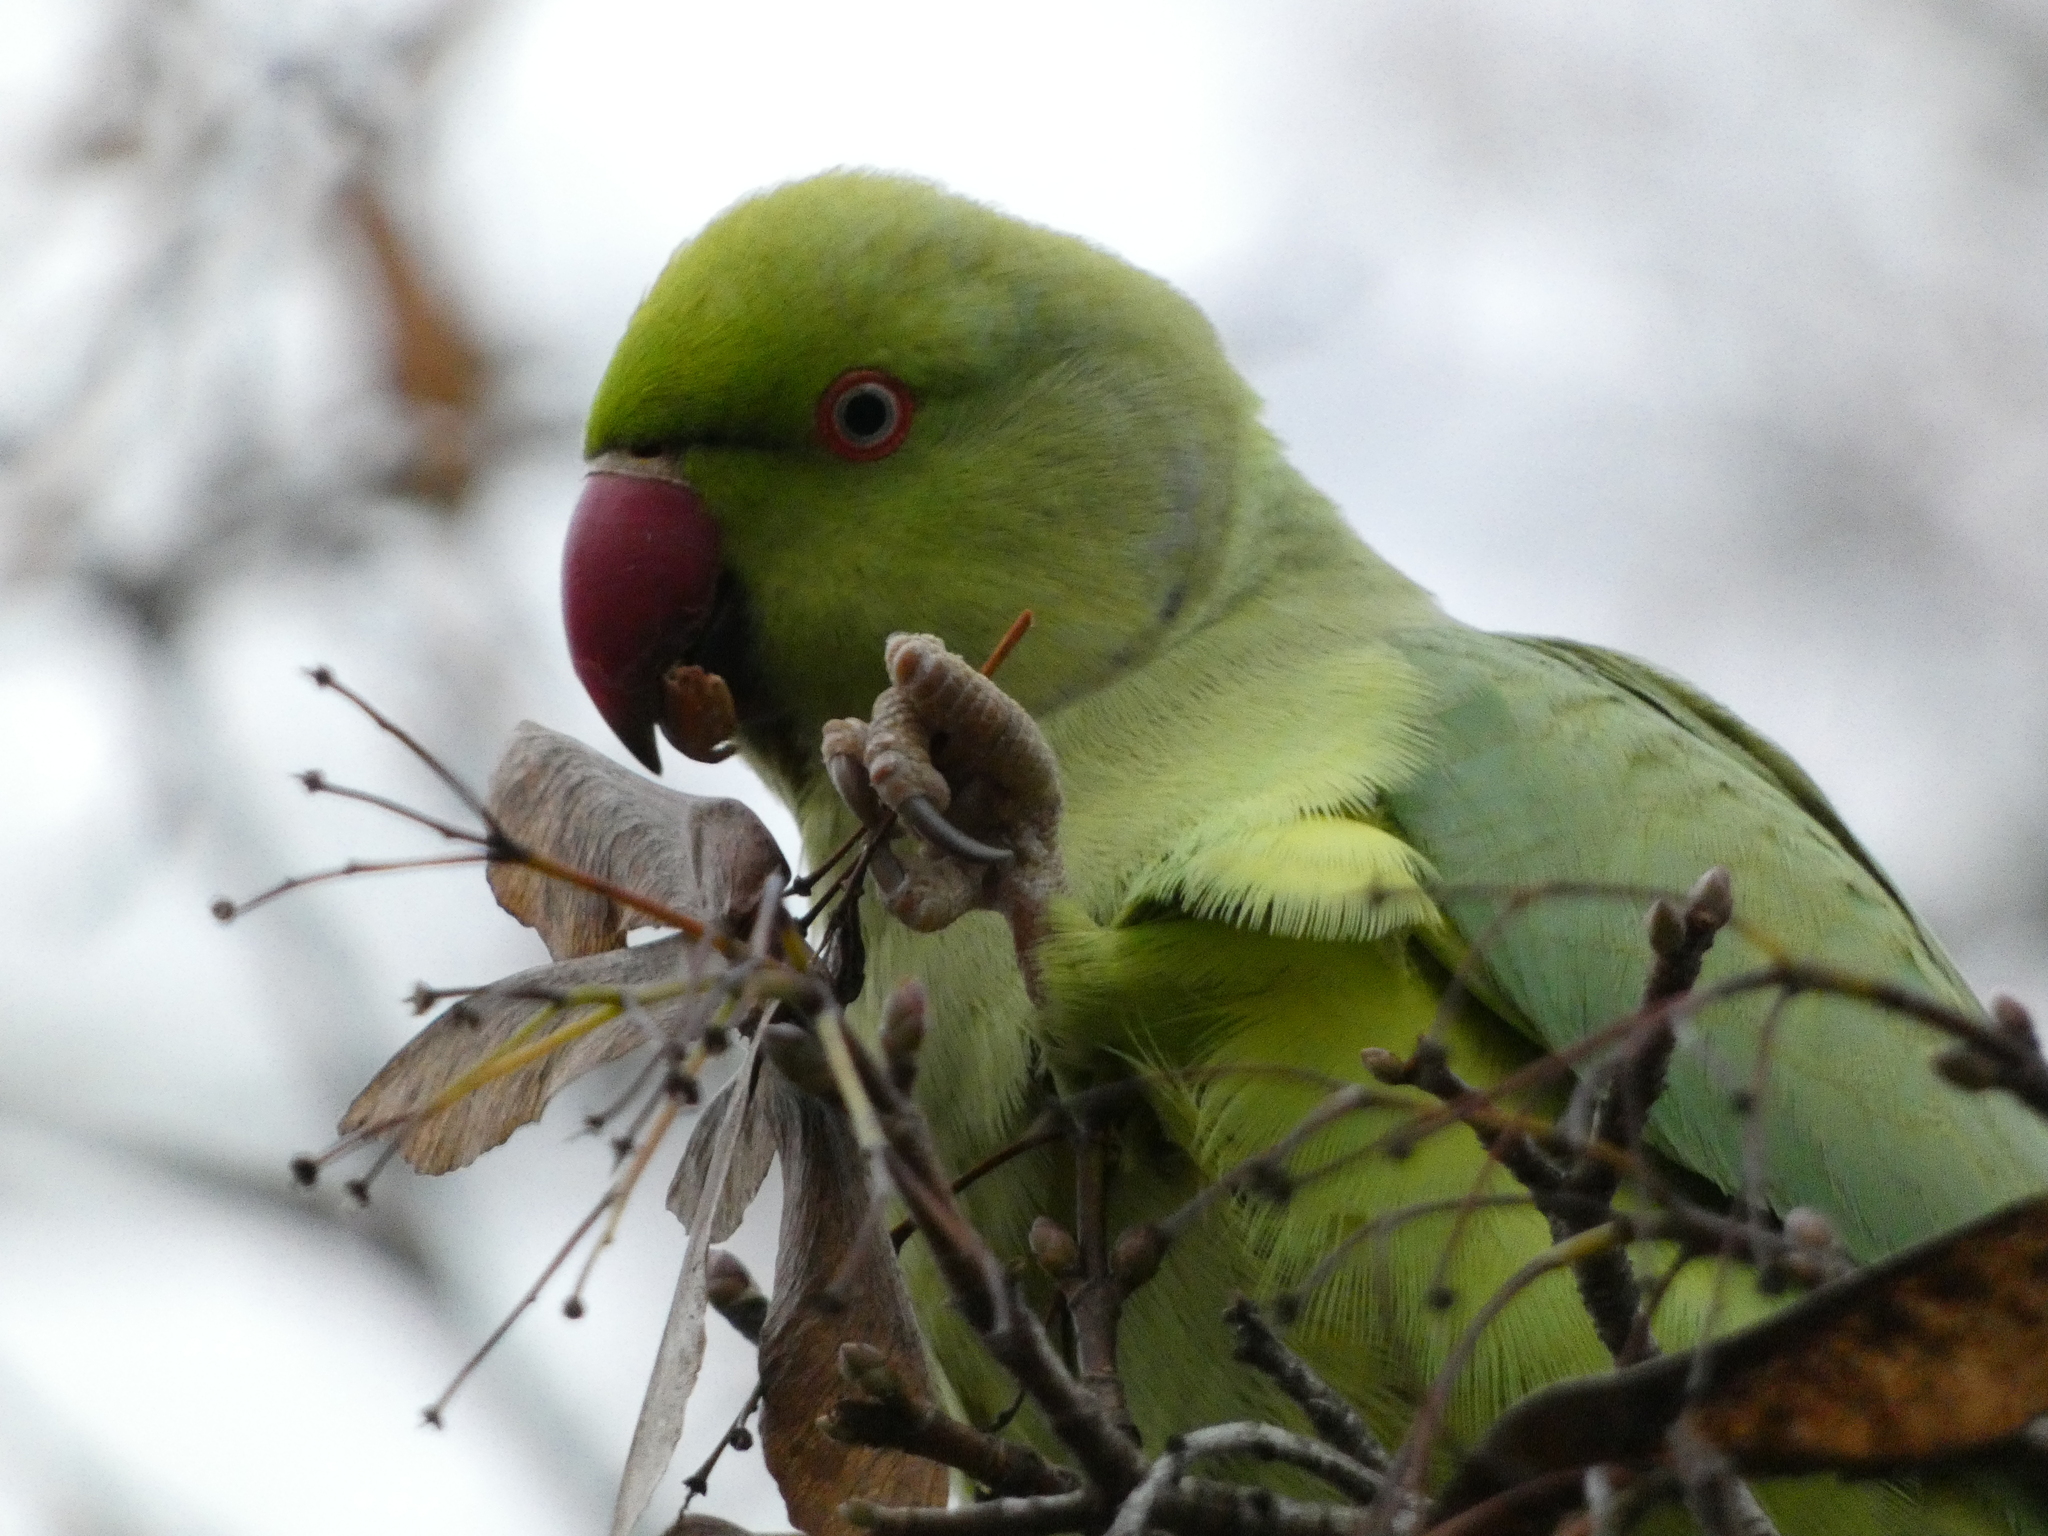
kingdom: Animalia
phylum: Chordata
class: Aves
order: Psittaciformes
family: Psittacidae
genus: Psittacula
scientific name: Psittacula krameri
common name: Rose-ringed parakeet
